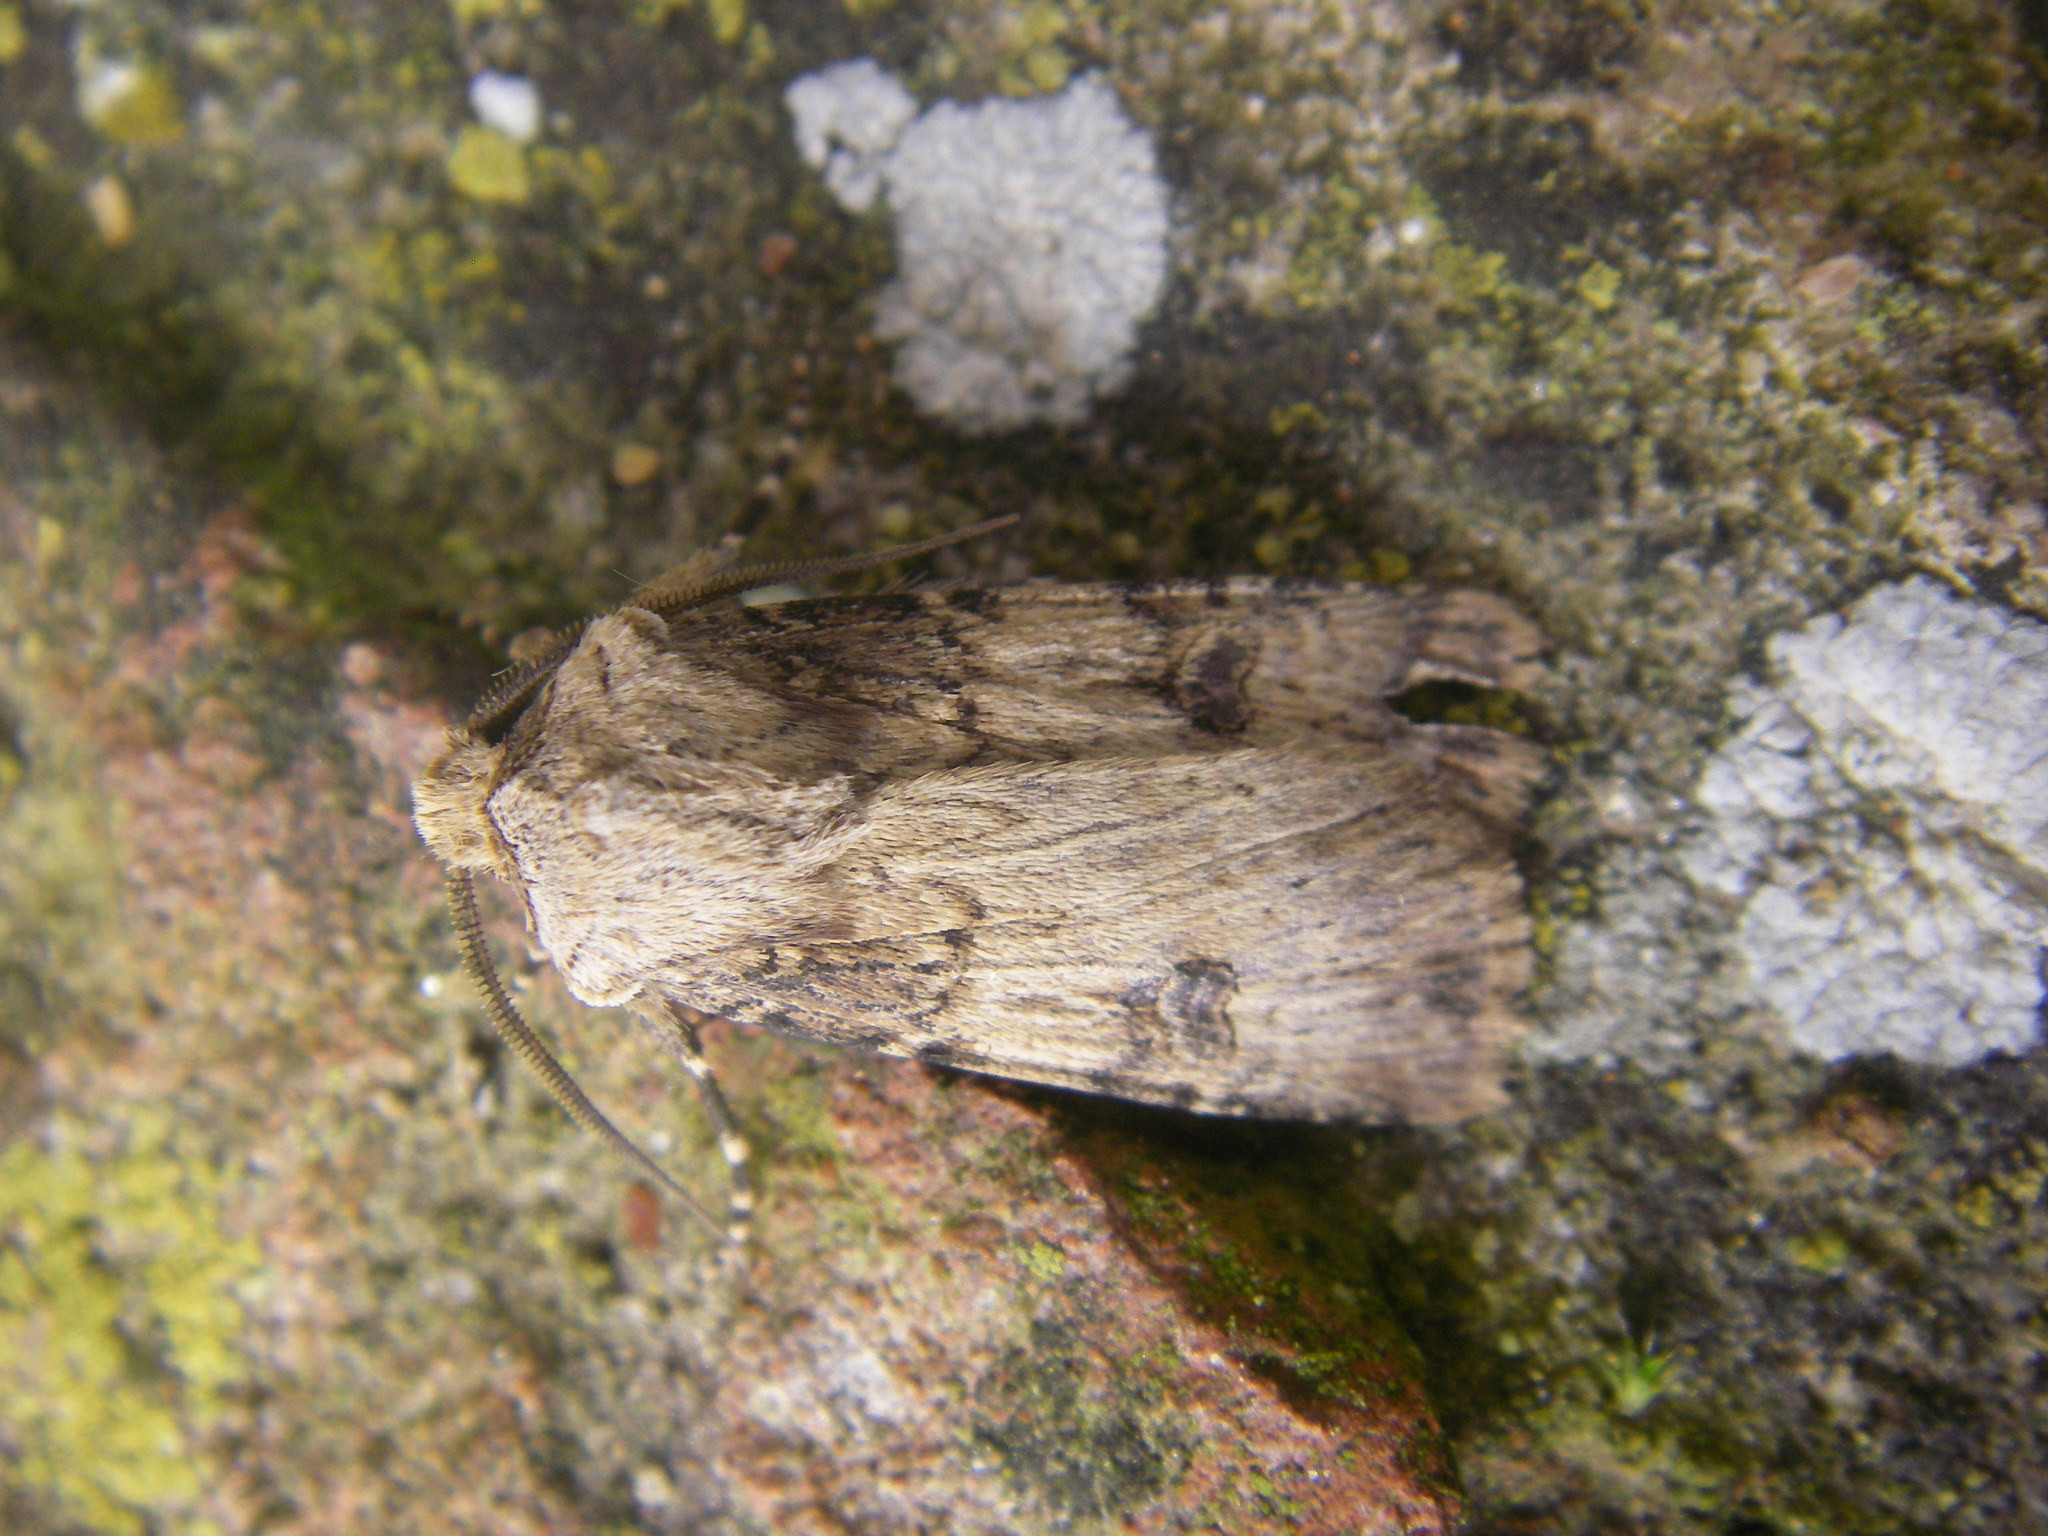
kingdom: Animalia
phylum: Arthropoda
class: Insecta
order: Lepidoptera
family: Noctuidae
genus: Agrotis
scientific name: Agrotis puta
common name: Shuttle-shaped dart
